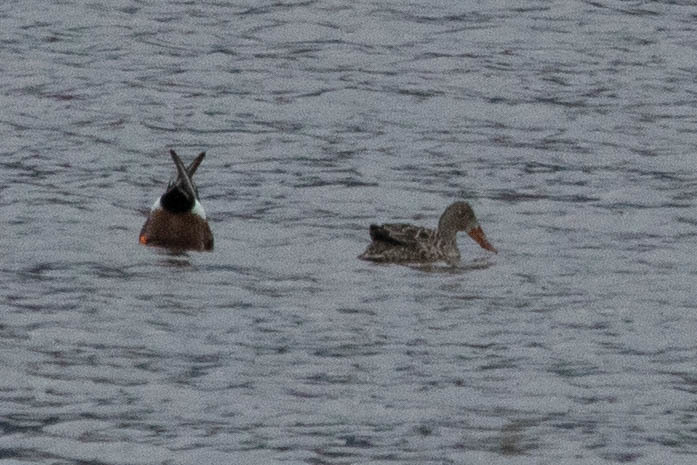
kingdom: Animalia
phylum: Chordata
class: Aves
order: Anseriformes
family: Anatidae
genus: Spatula
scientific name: Spatula clypeata
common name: Northern shoveler
